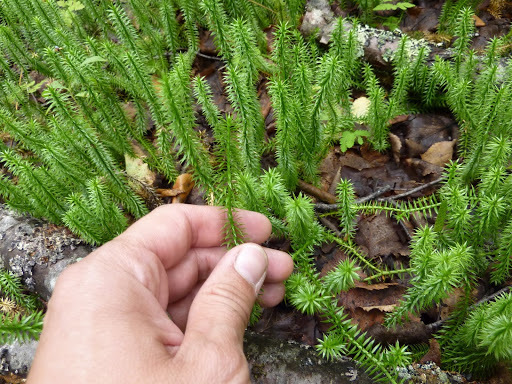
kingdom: Plantae
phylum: Tracheophyta
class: Lycopodiopsida
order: Lycopodiales
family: Lycopodiaceae
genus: Spinulum
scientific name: Spinulum annotinum
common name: Interrupted club-moss
